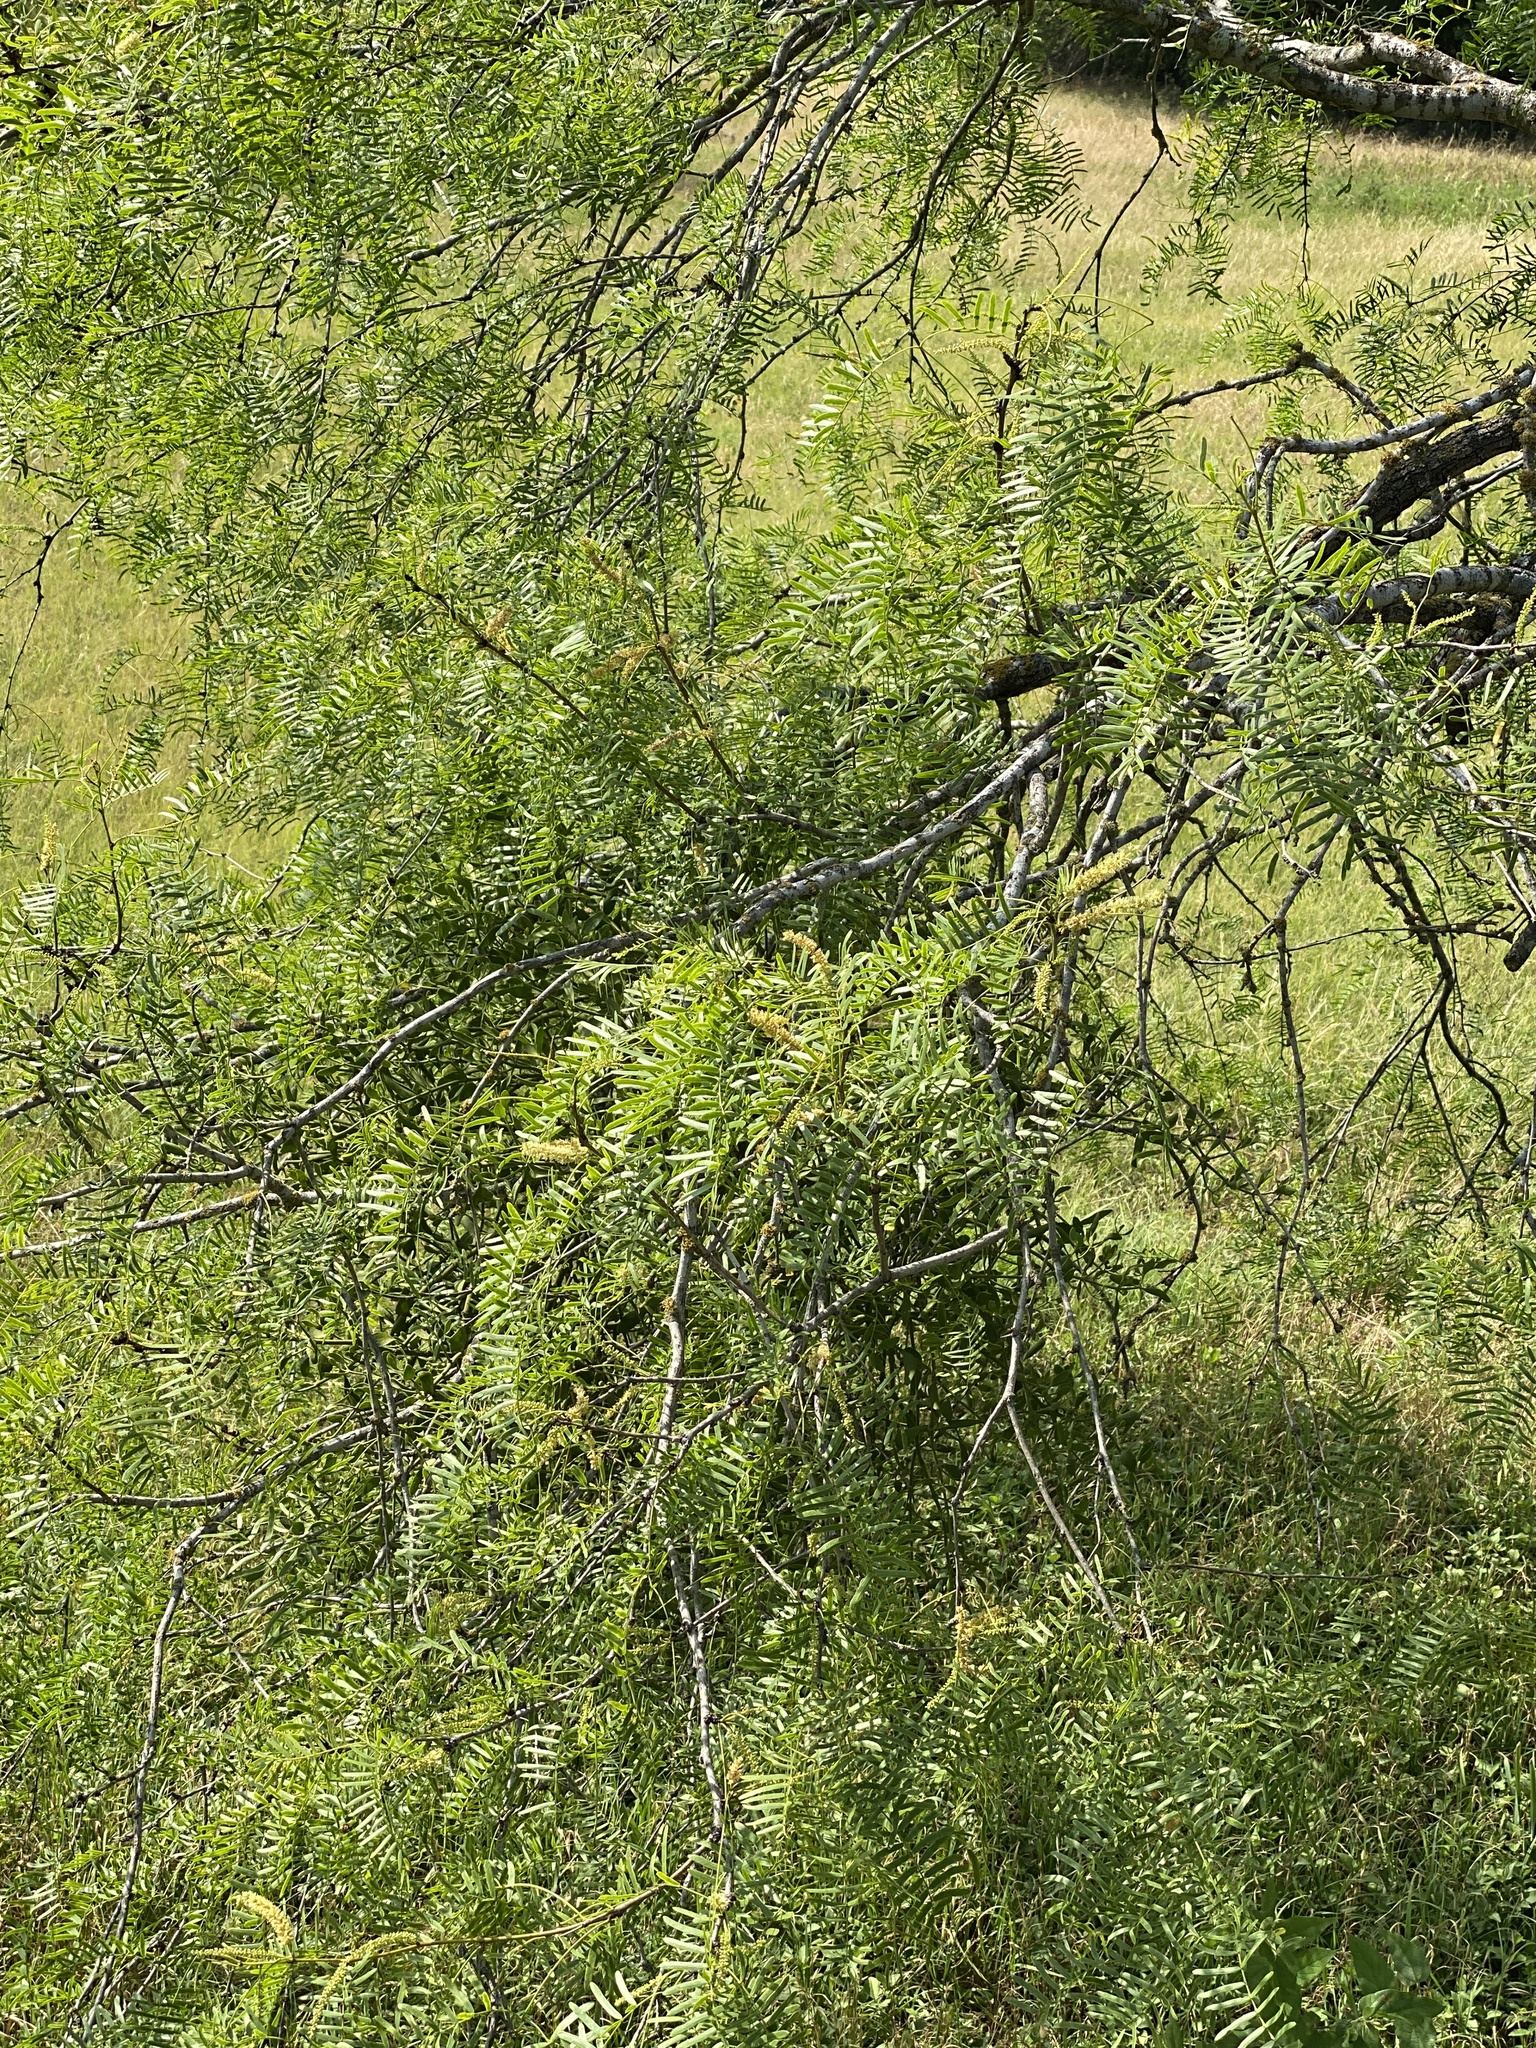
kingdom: Plantae
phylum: Tracheophyta
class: Magnoliopsida
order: Fabales
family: Fabaceae
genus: Prosopis
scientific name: Prosopis glandulosa
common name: Honey mesquite
